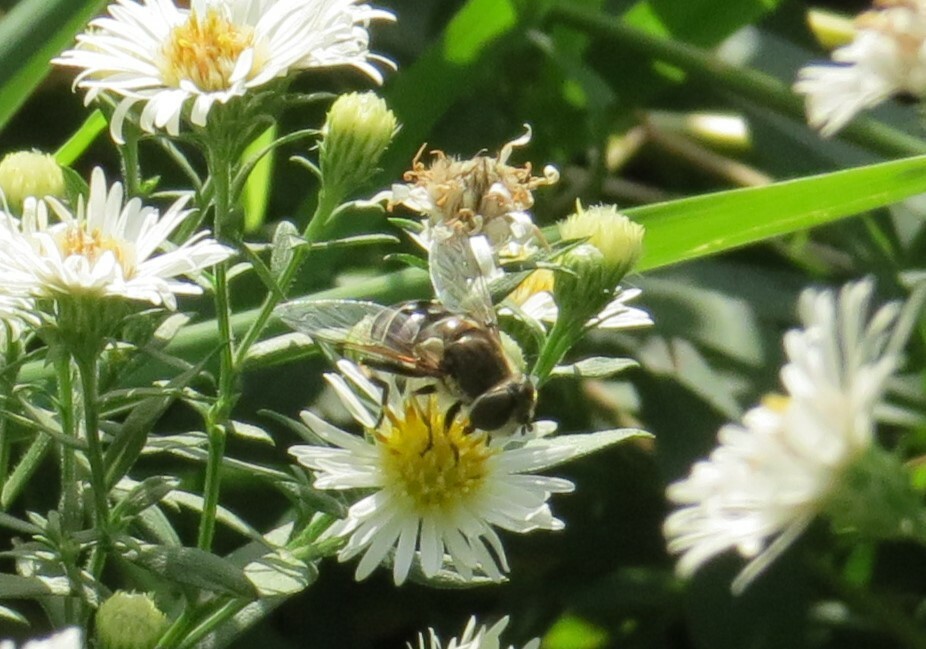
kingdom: Animalia
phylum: Arthropoda
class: Insecta
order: Diptera
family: Syrphidae
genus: Eristalis
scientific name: Eristalis dimidiata
